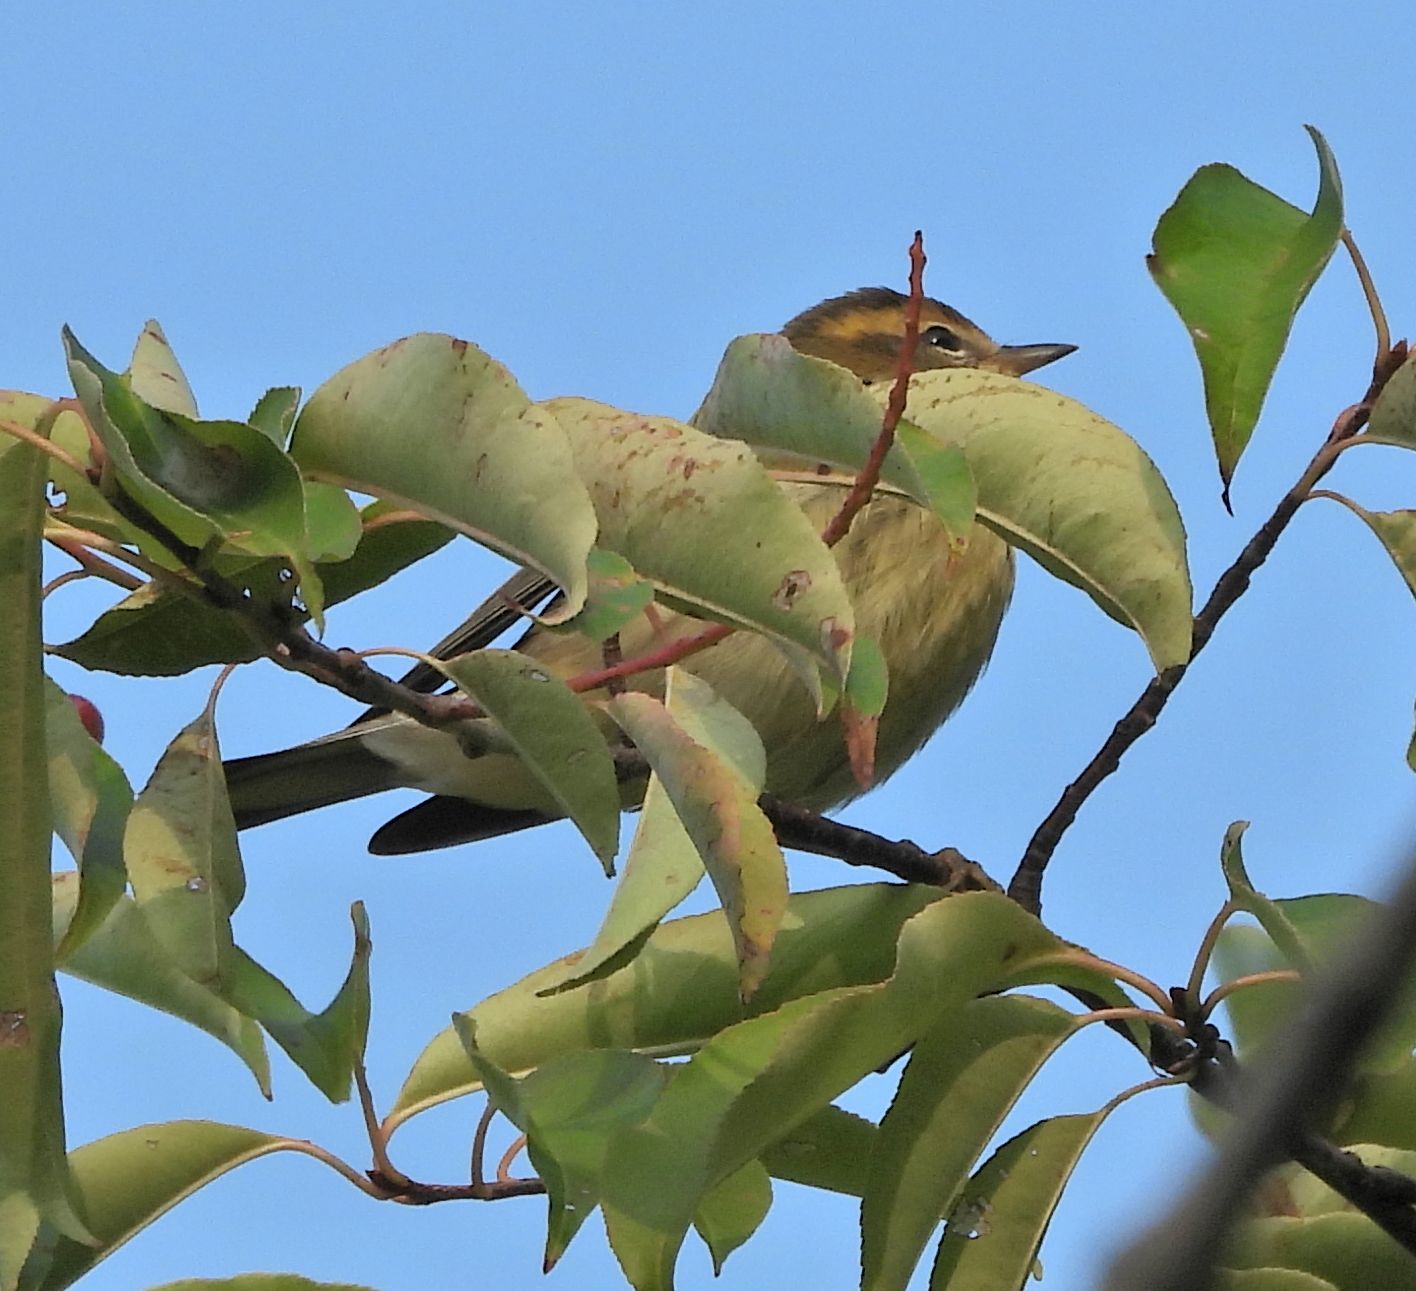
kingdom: Animalia
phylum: Chordata
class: Aves
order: Passeriformes
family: Parulidae
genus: Setophaga
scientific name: Setophaga fusca
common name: Blackburnian warbler
